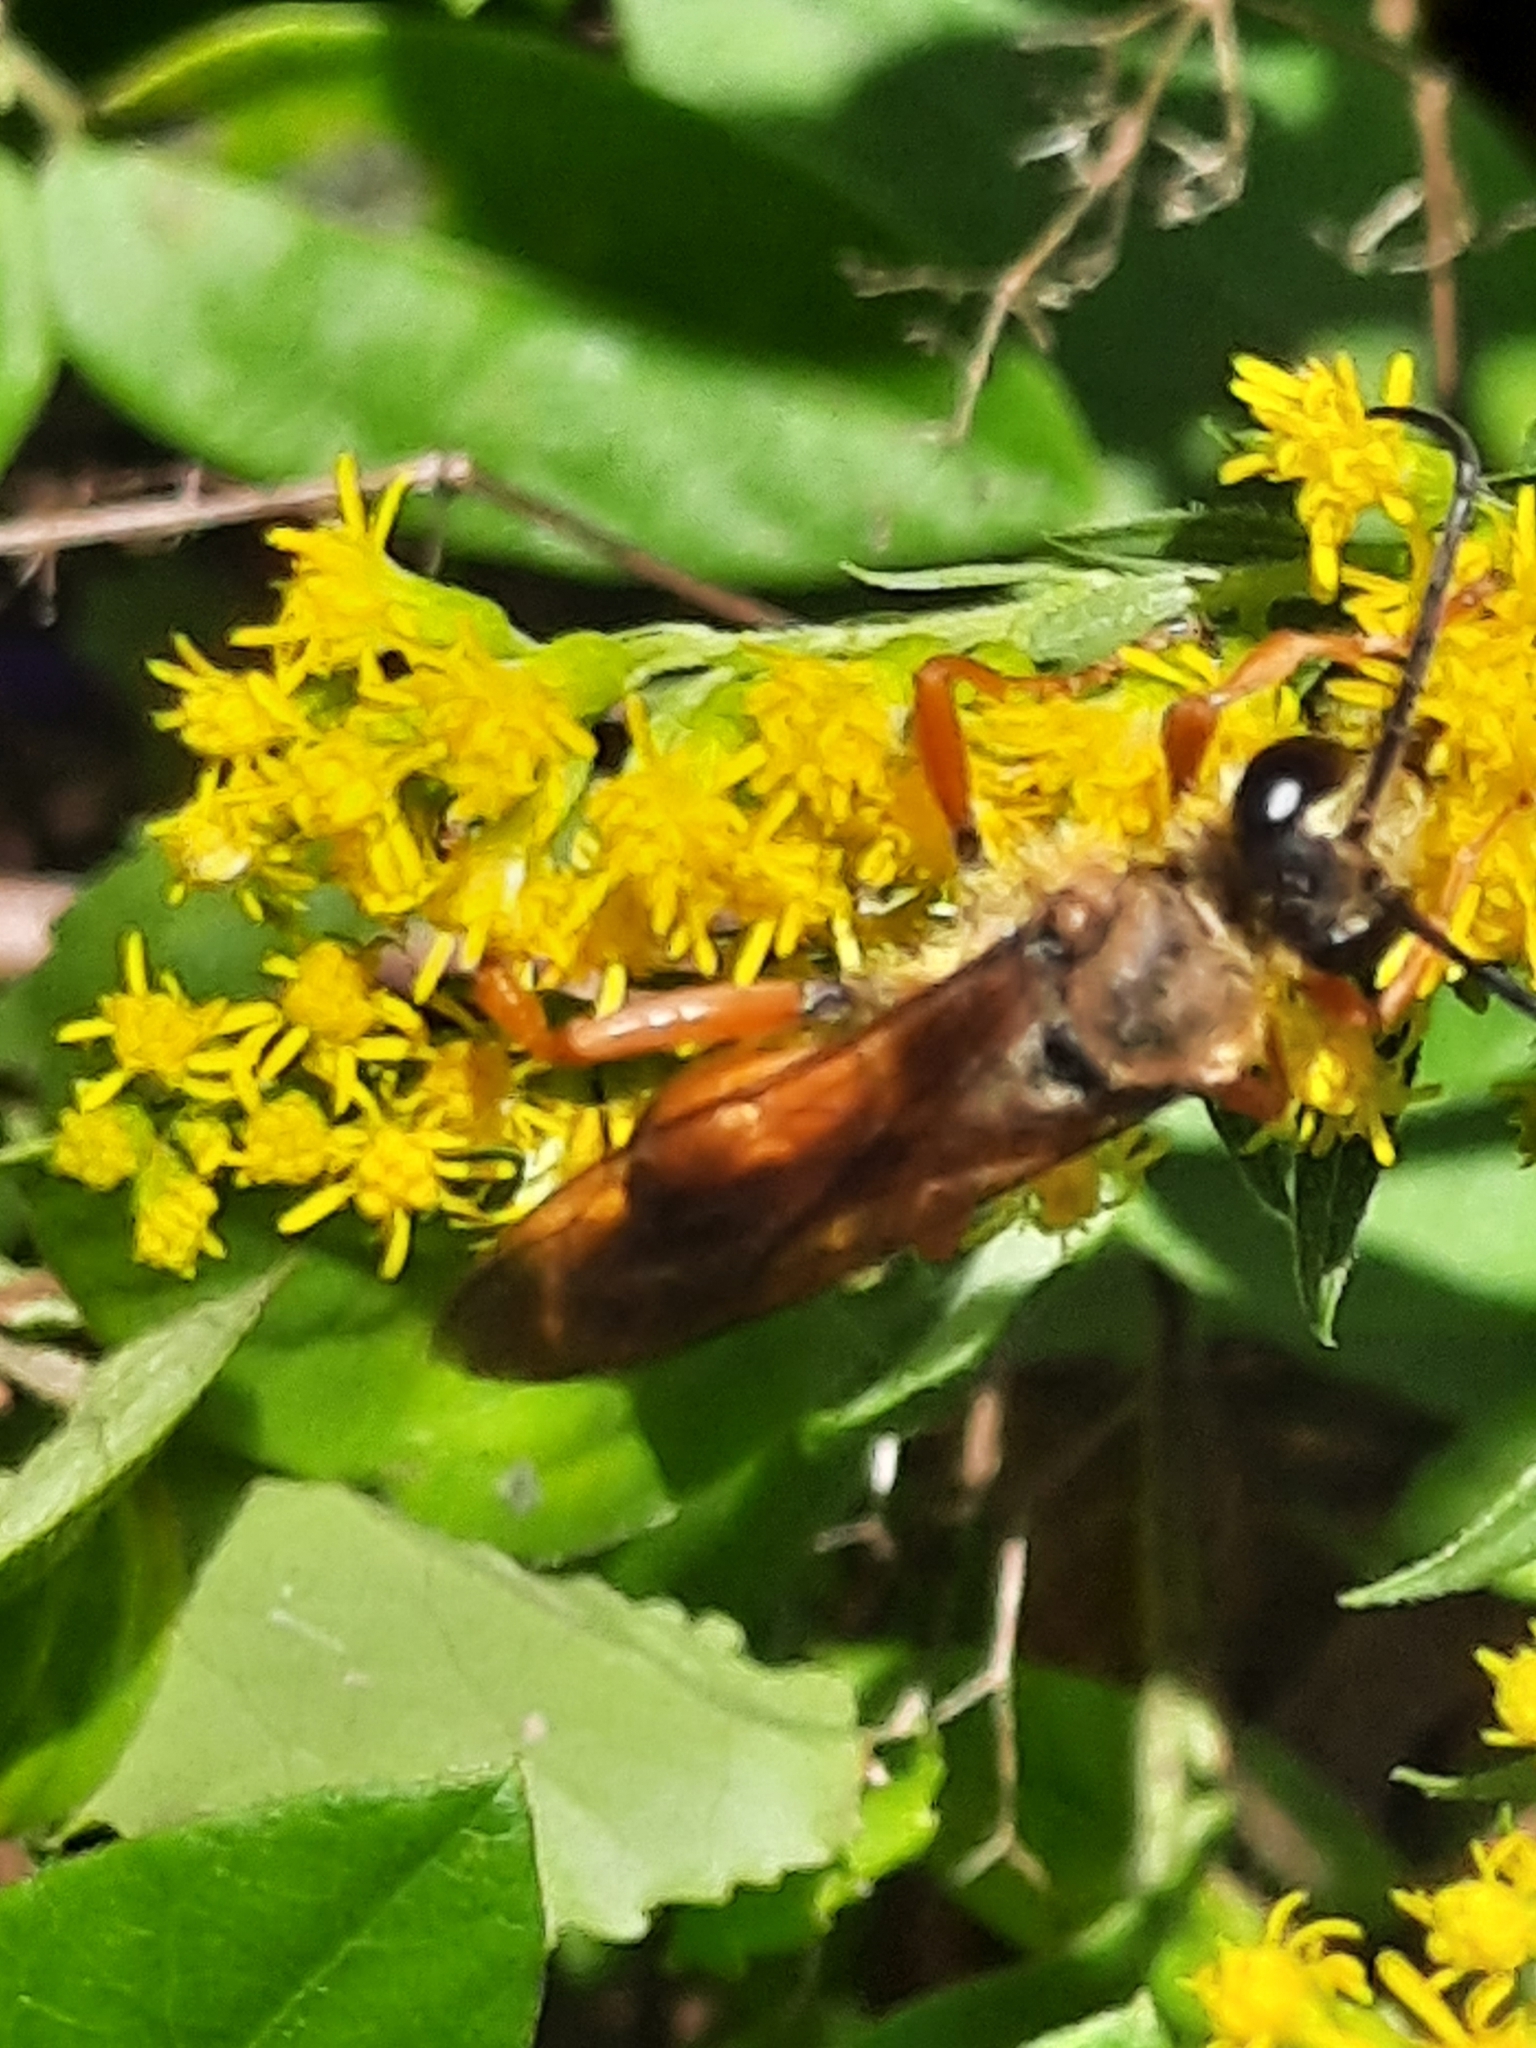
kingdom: Animalia
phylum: Arthropoda
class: Insecta
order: Hymenoptera
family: Sphecidae
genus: Sphex
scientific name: Sphex ichneumoneus
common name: Great golden digger wasp
